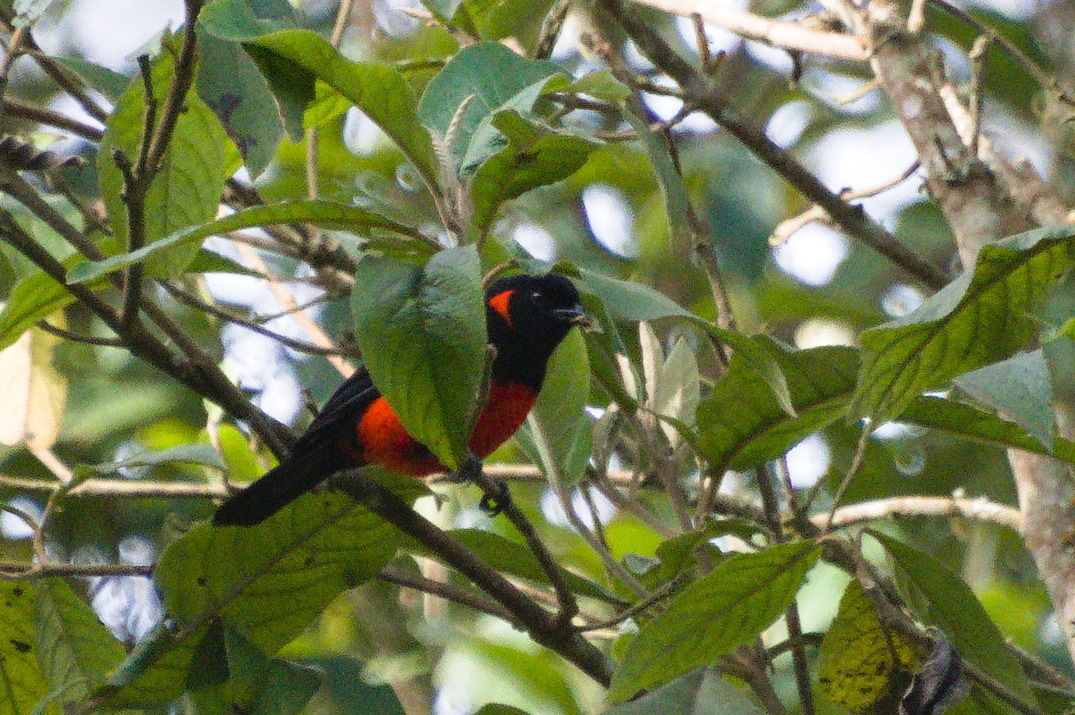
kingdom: Animalia
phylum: Chordata
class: Aves
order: Passeriformes
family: Thraupidae
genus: Anisognathus
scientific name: Anisognathus igniventris
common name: Scarlet-bellied mountain tanager
